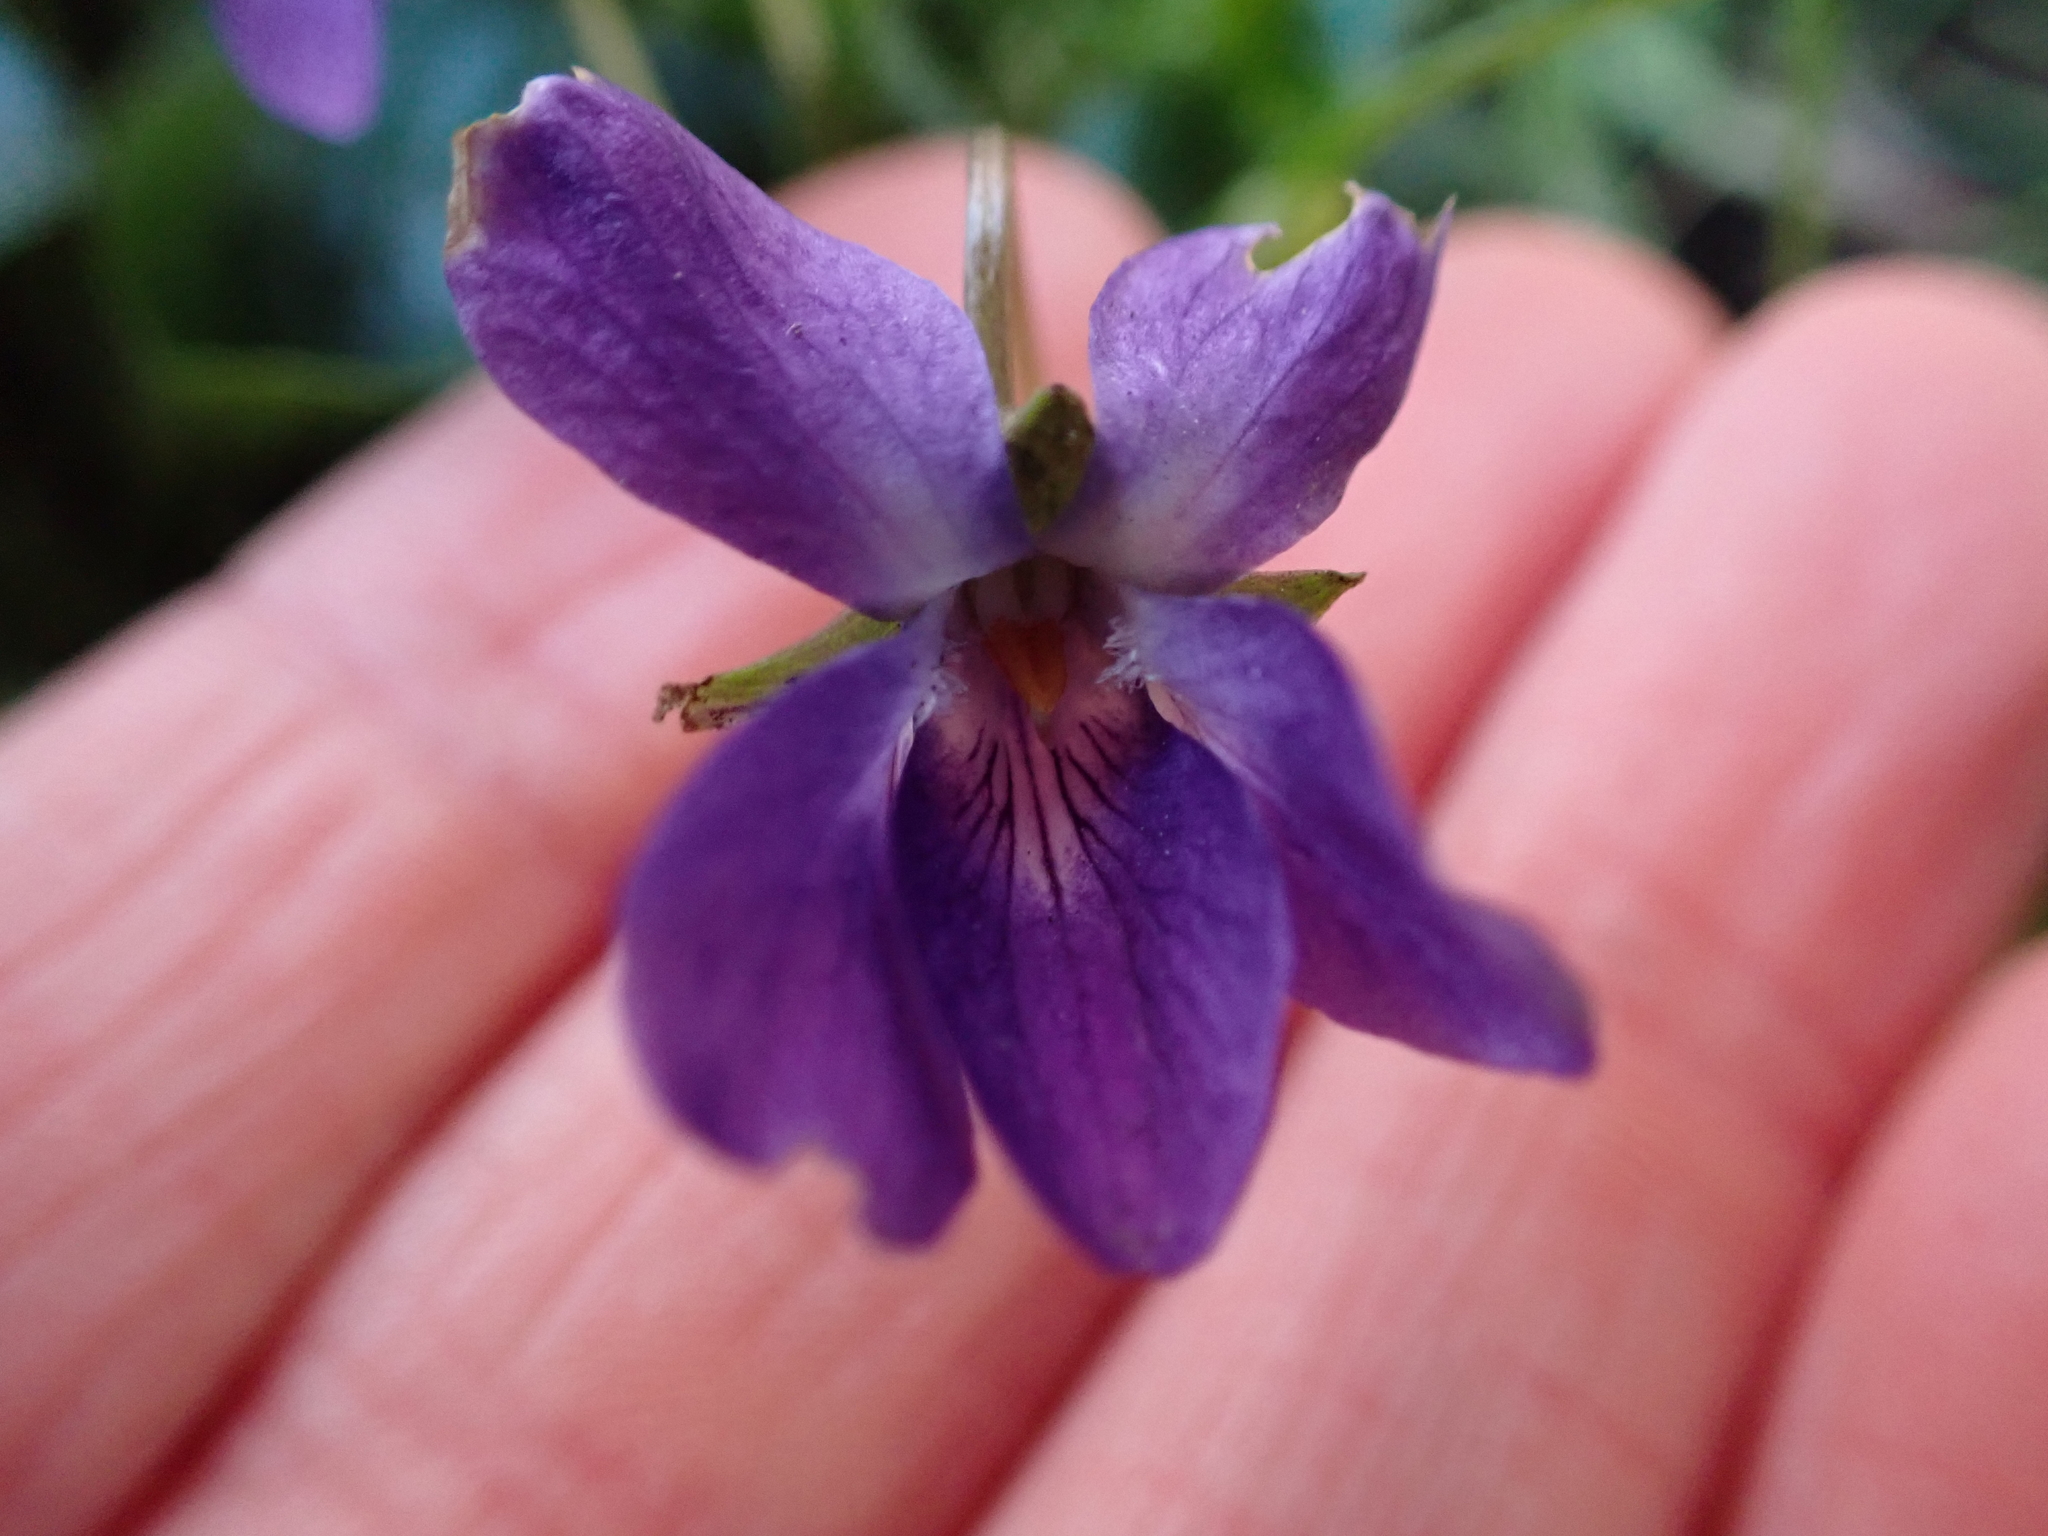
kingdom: Plantae
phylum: Tracheophyta
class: Magnoliopsida
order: Malpighiales
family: Violaceae
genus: Viola
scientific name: Viola odorata
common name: Sweet violet
